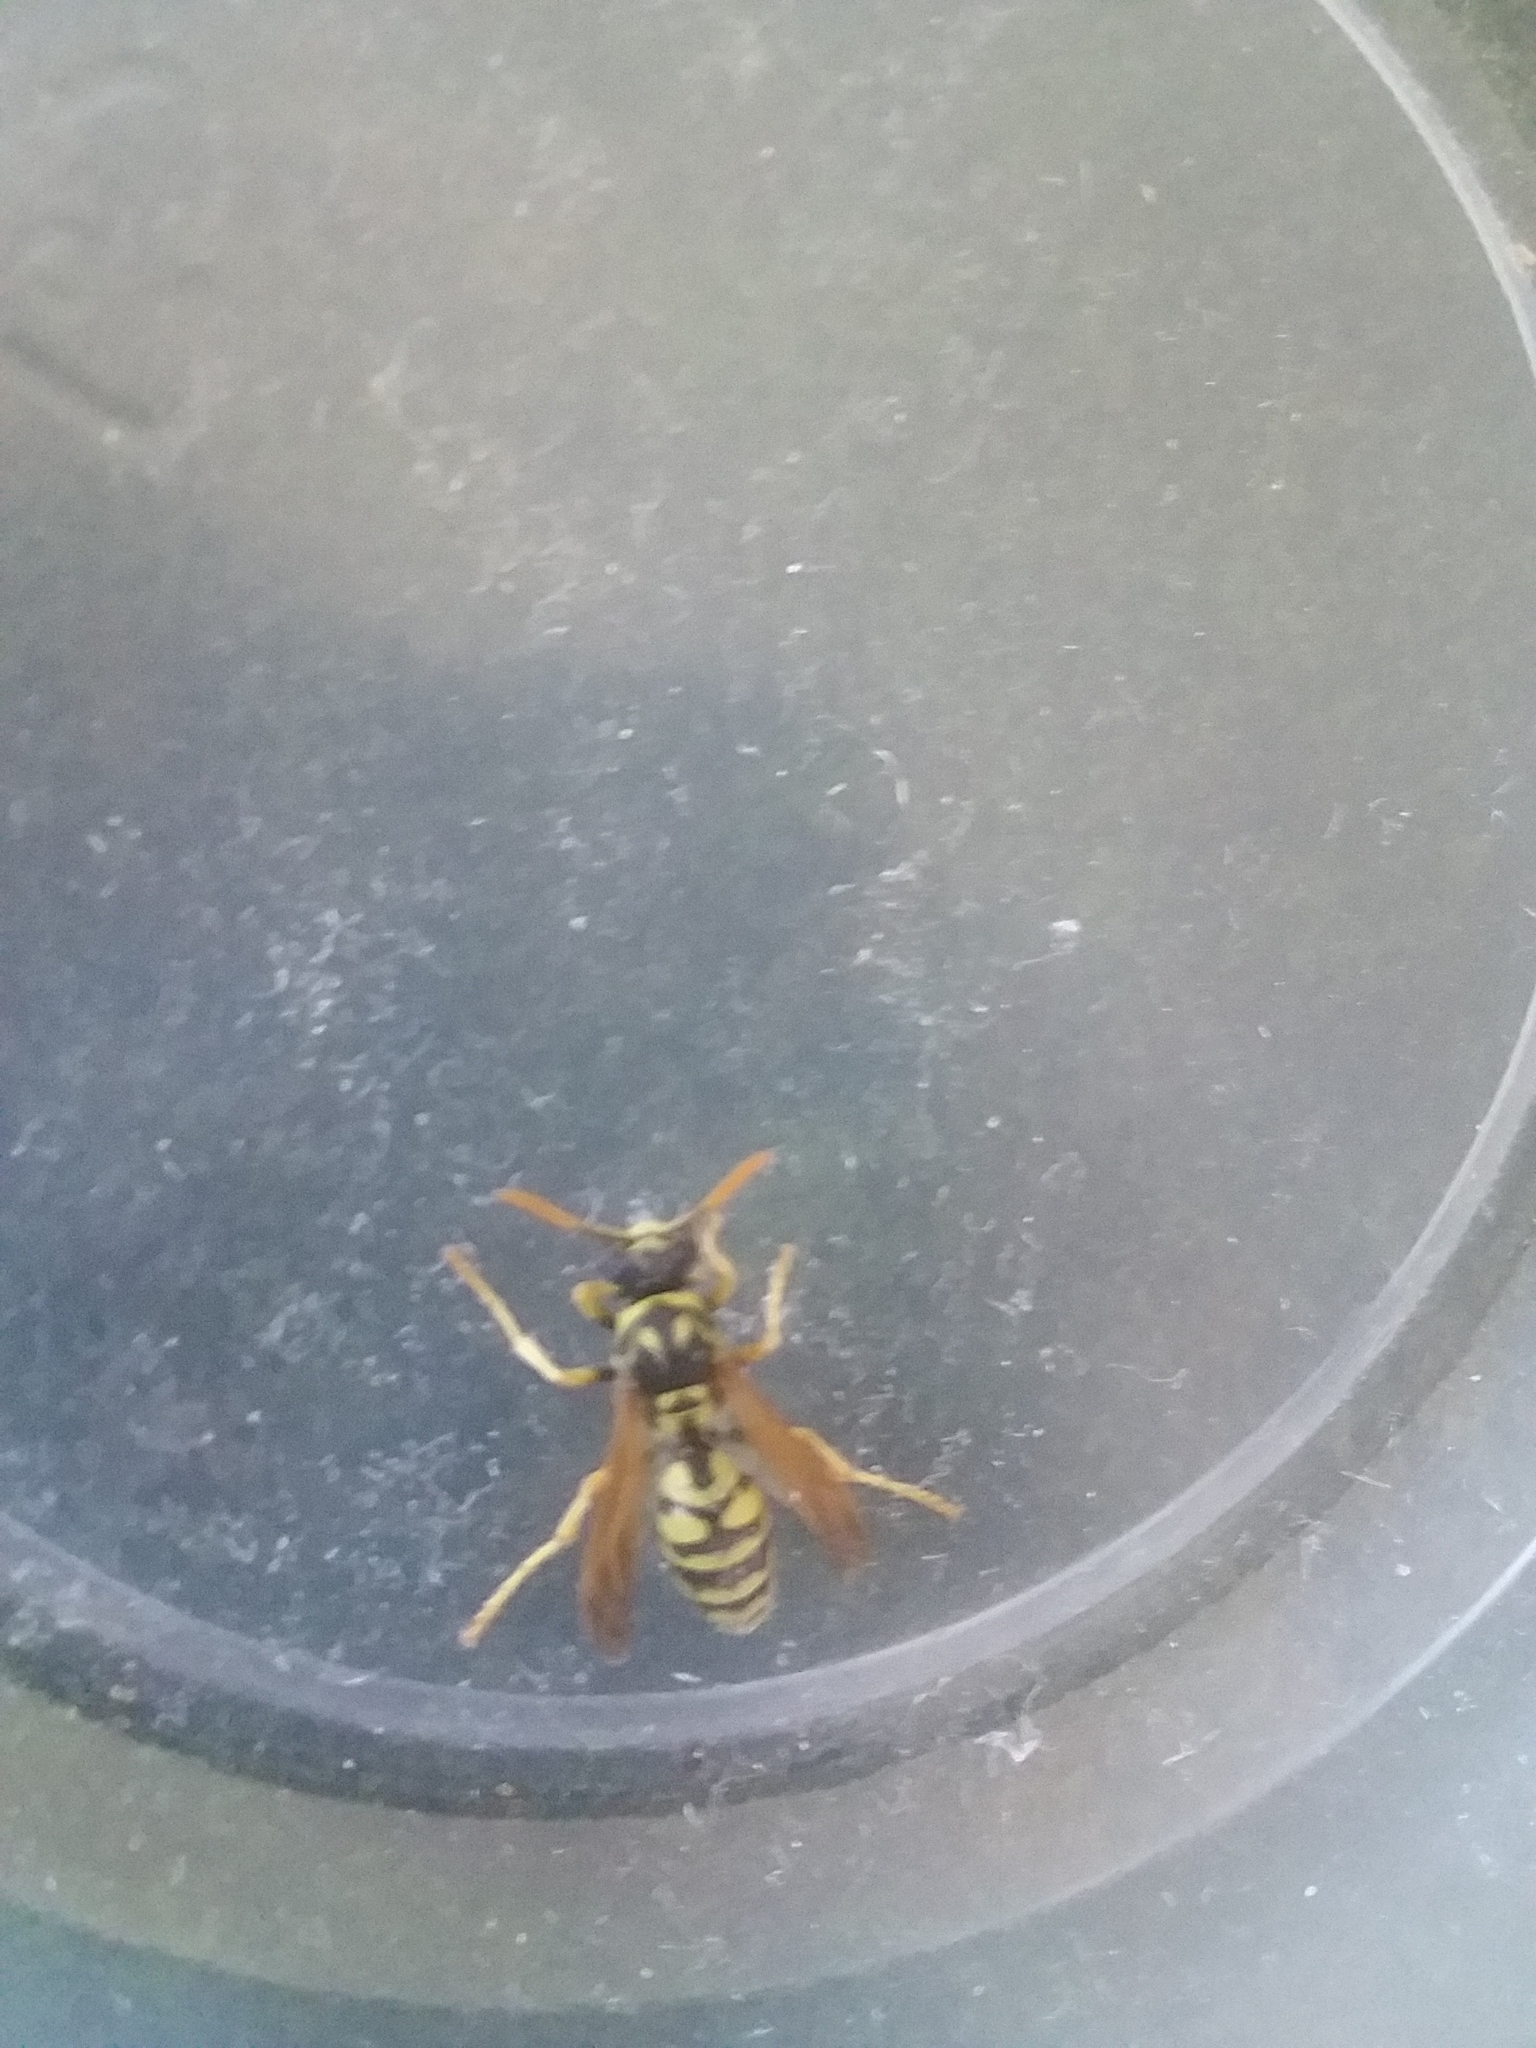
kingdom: Animalia
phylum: Arthropoda
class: Insecta
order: Hymenoptera
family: Eumenidae
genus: Polistes
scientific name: Polistes dominula
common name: Paper wasp
